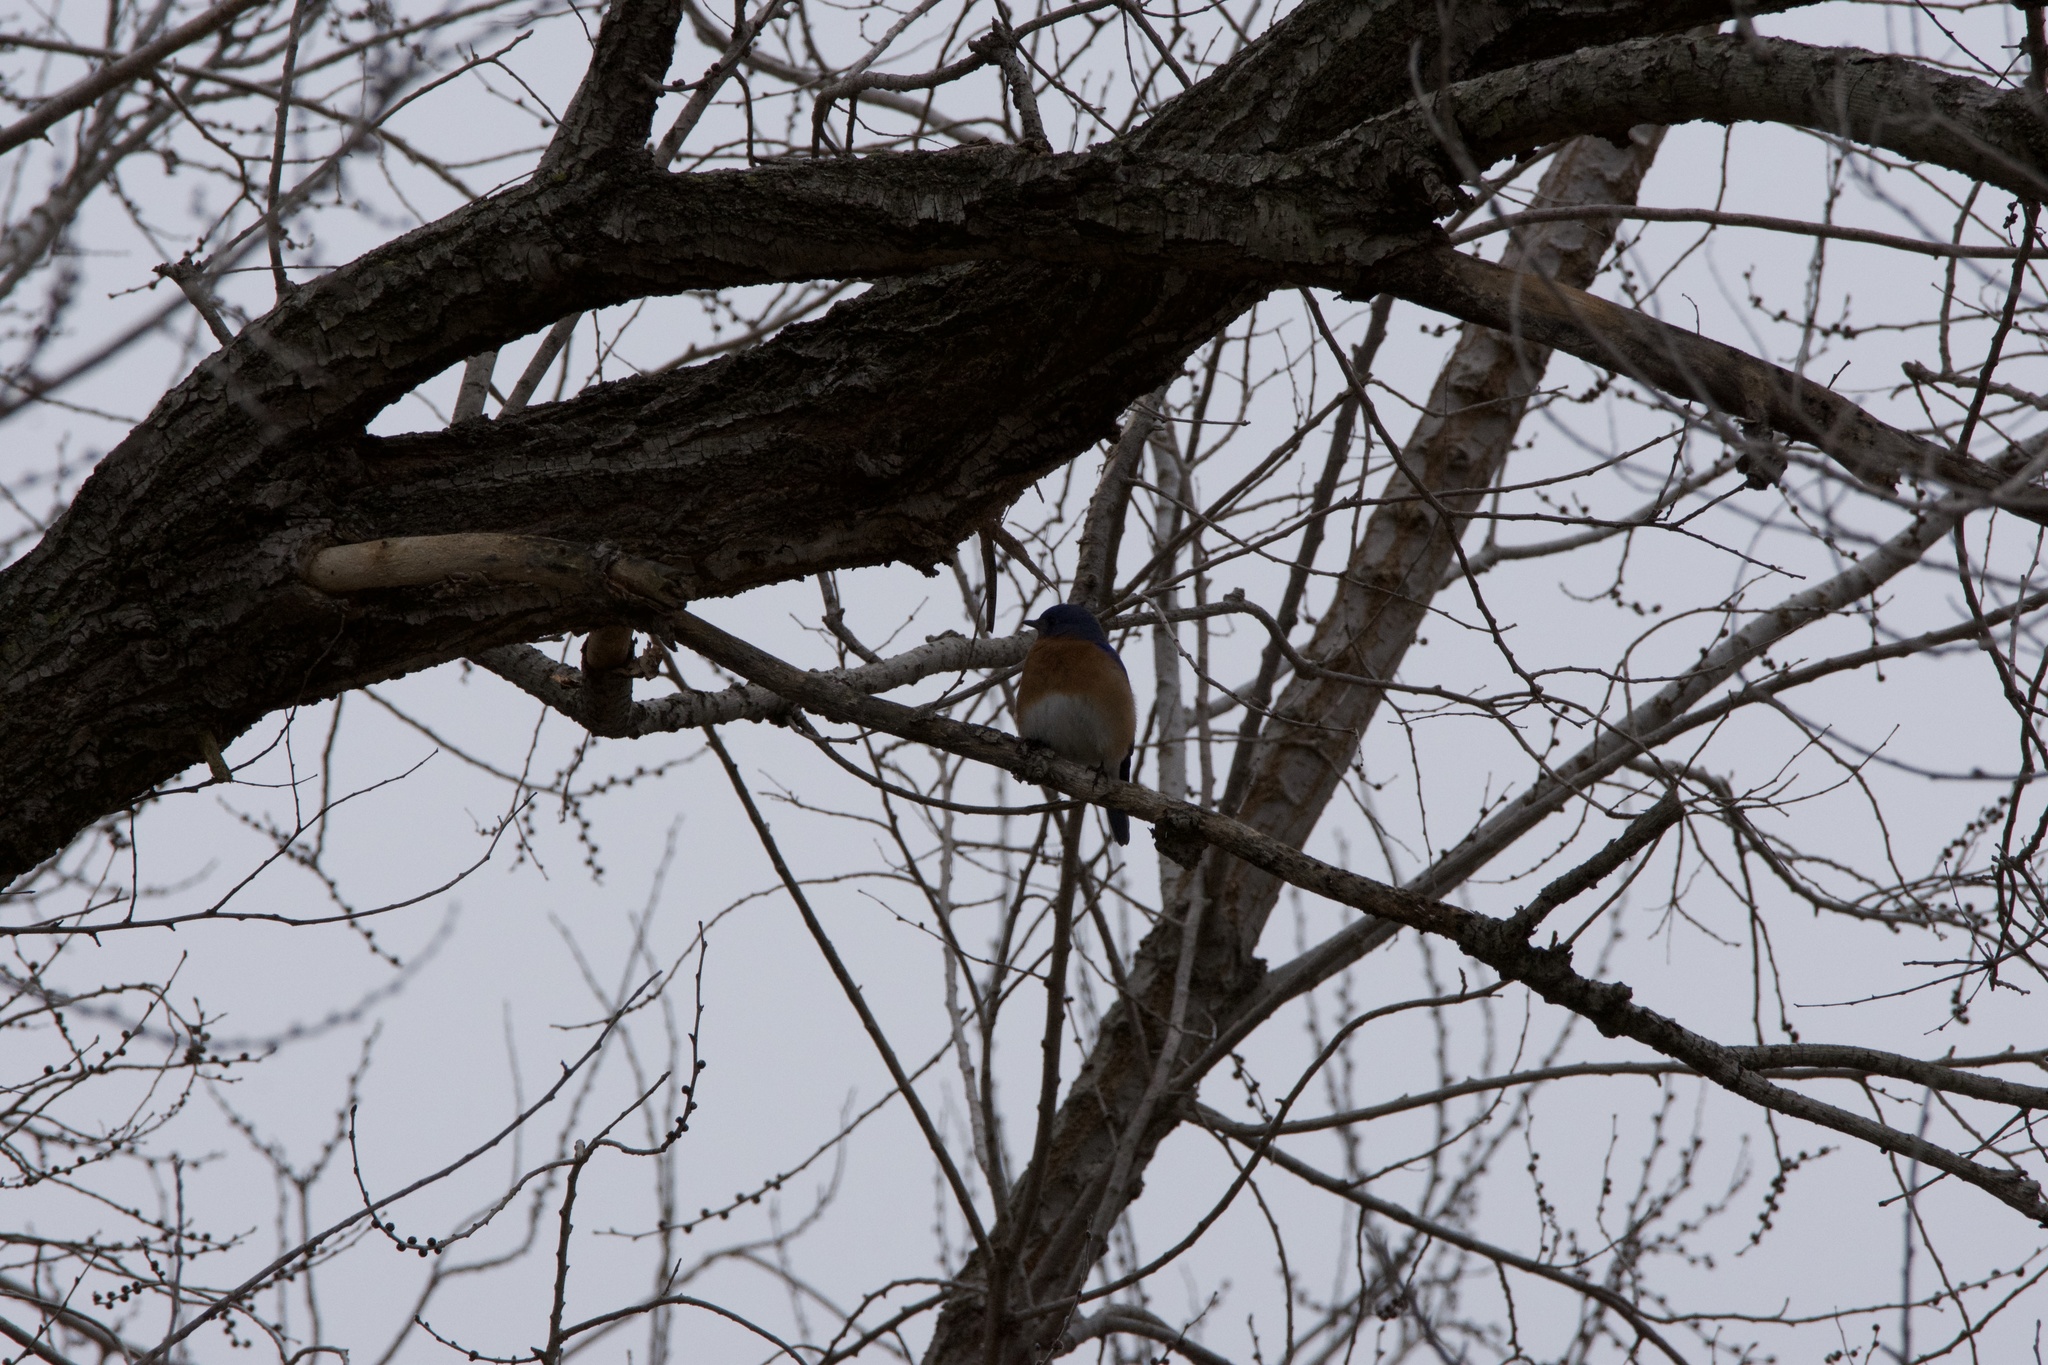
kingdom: Animalia
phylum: Chordata
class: Aves
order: Passeriformes
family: Turdidae
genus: Sialia
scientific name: Sialia sialis
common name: Eastern bluebird
